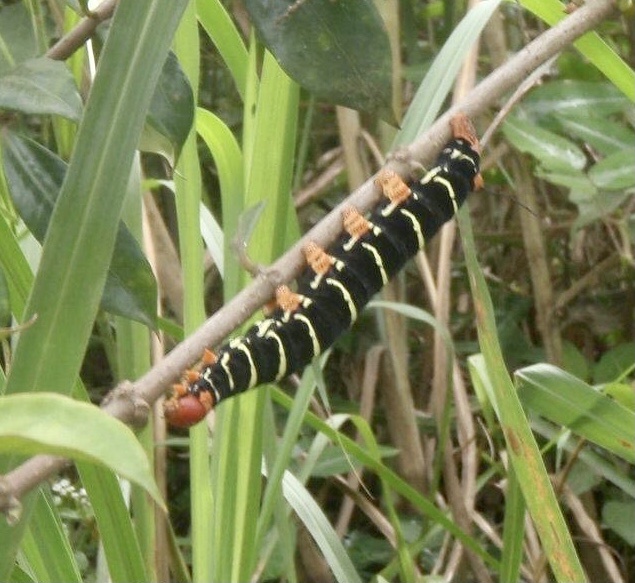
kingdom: Animalia
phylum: Arthropoda
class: Insecta
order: Lepidoptera
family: Sphingidae
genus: Pseudosphinx
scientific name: Pseudosphinx tetrio
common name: Tetrio sphinx
